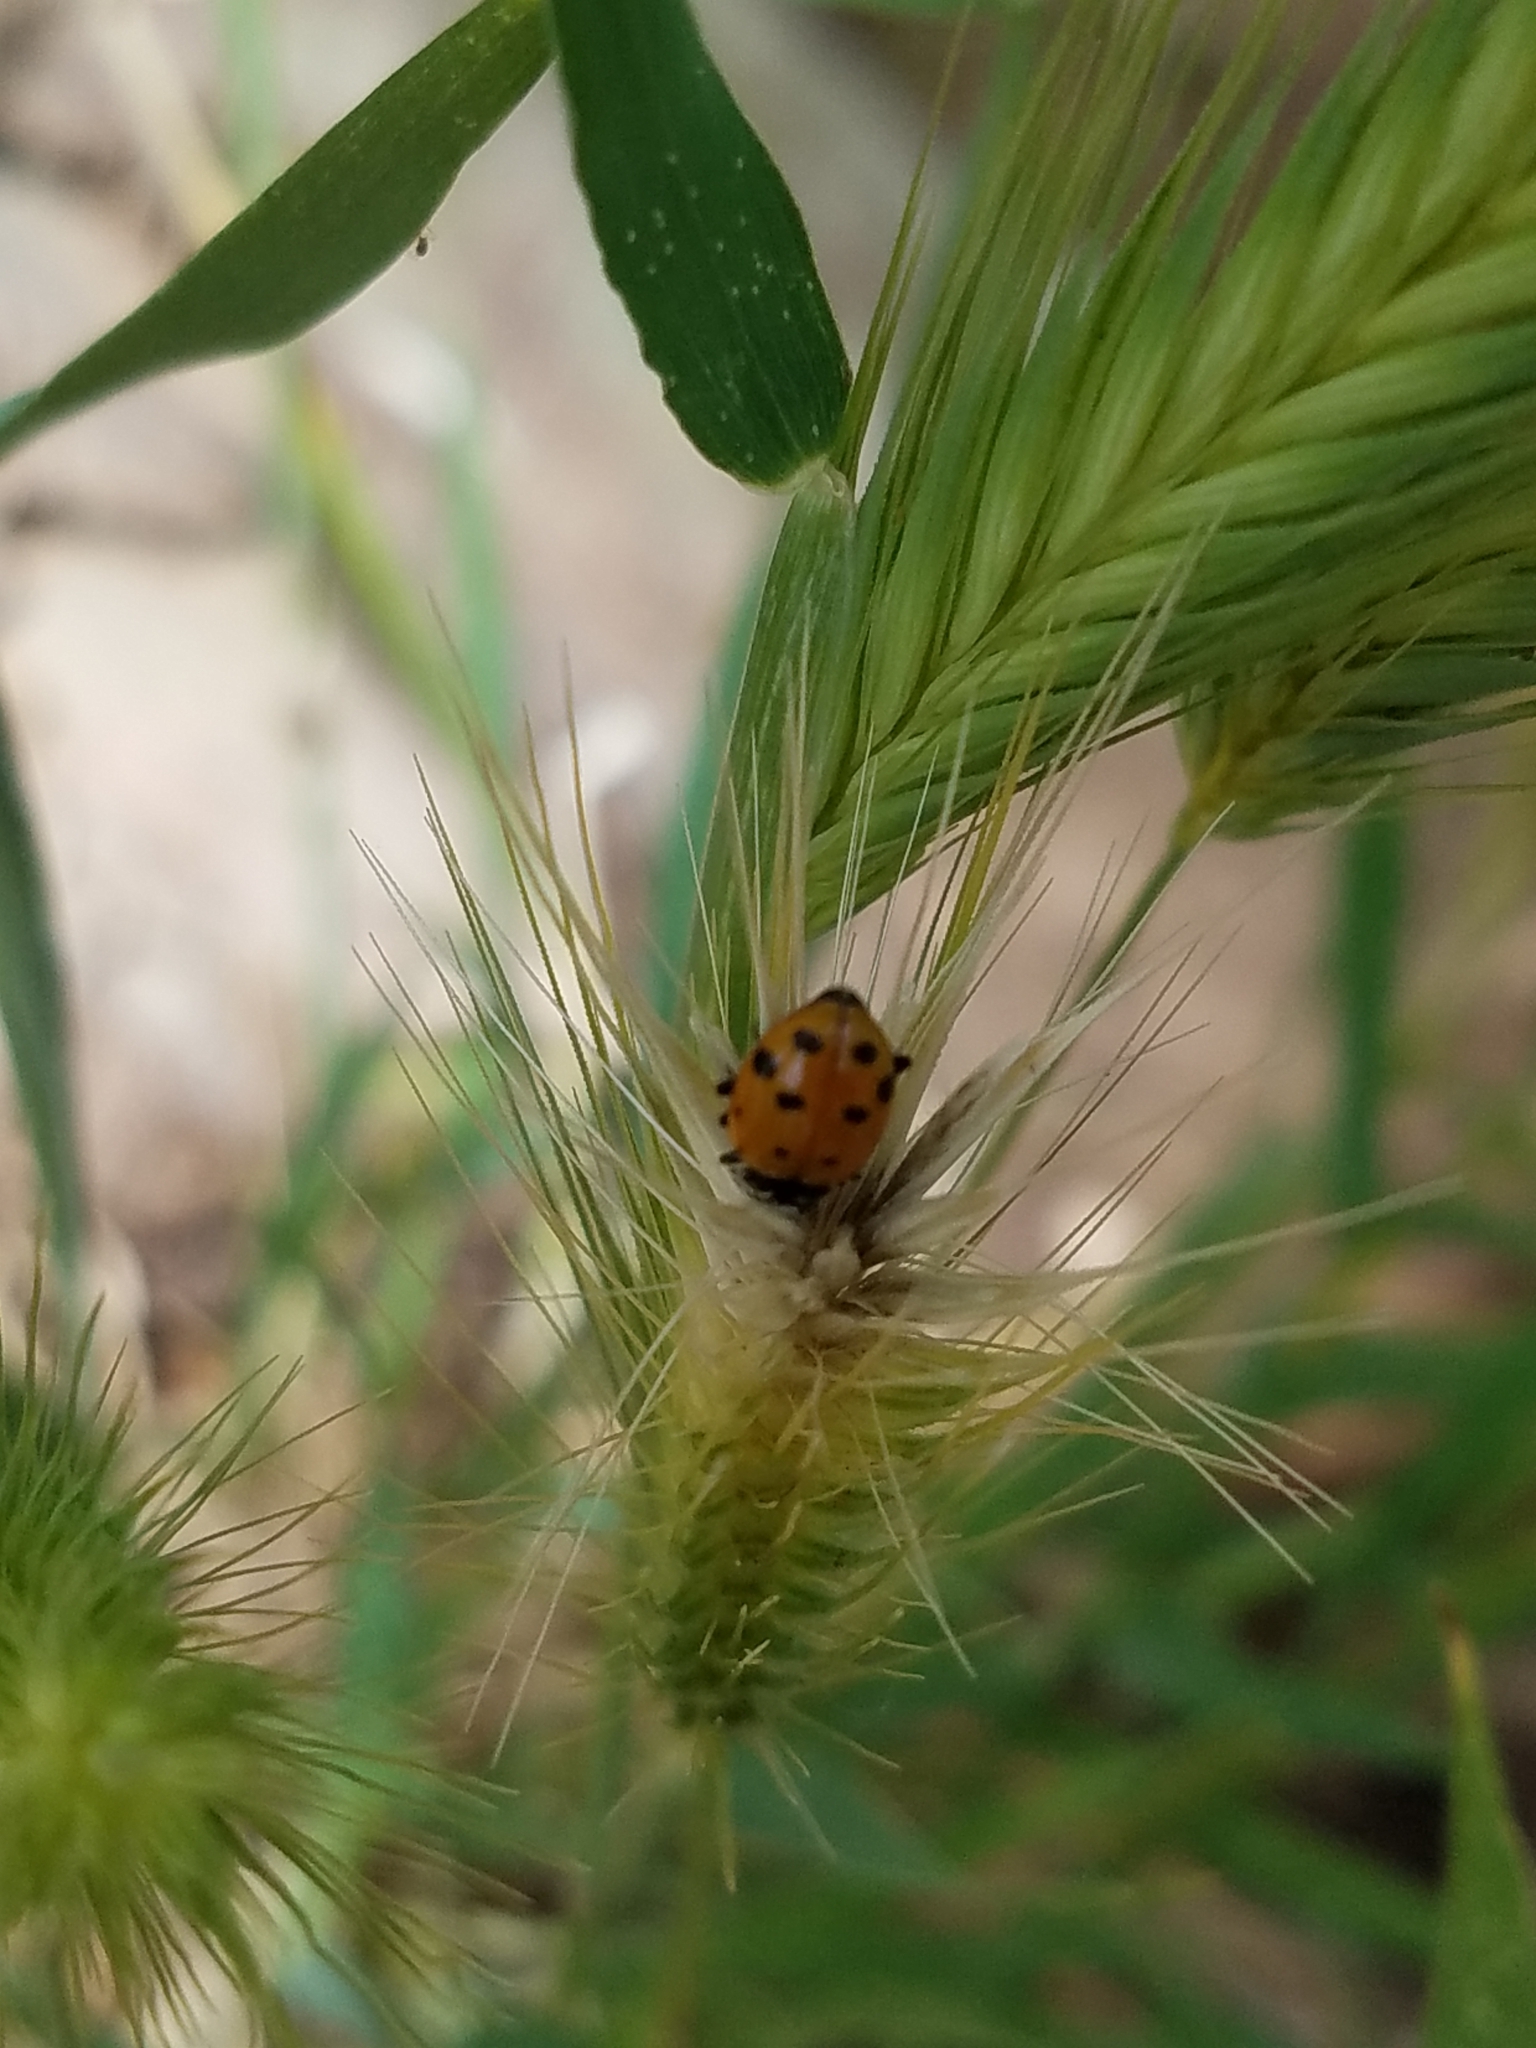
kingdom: Animalia
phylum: Arthropoda
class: Insecta
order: Coleoptera
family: Coccinellidae
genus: Hippodamia
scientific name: Hippodamia convergens
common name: Convergent lady beetle
